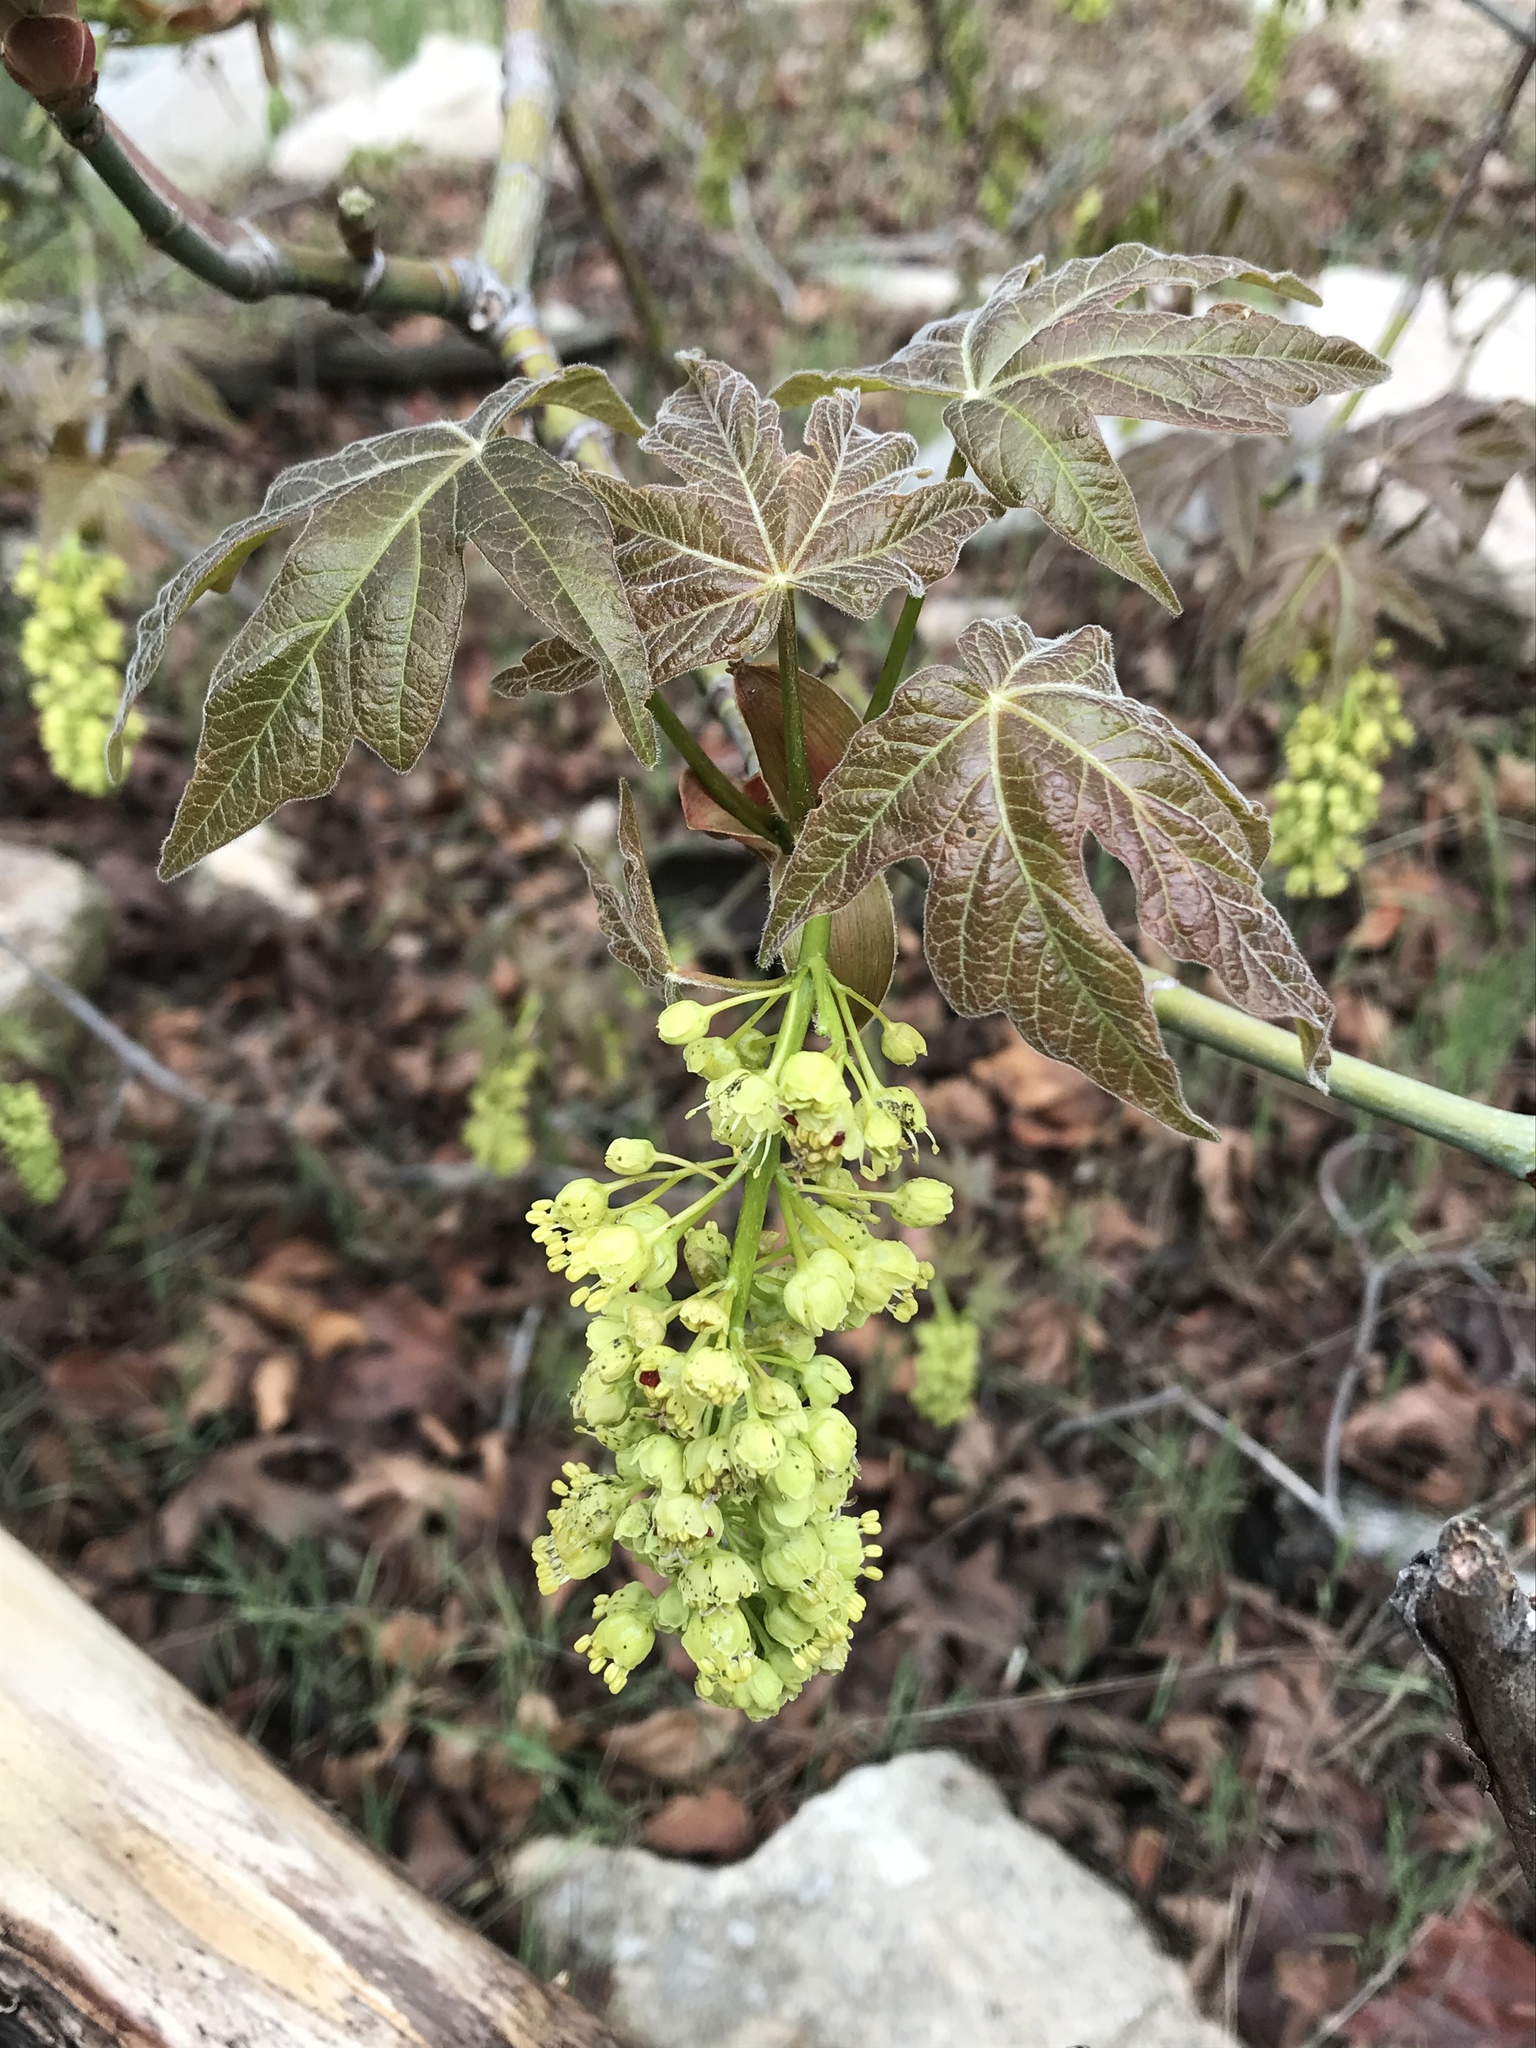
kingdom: Plantae
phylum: Tracheophyta
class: Magnoliopsida
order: Sapindales
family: Sapindaceae
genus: Acer
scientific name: Acer macrophyllum
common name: Oregon maple
